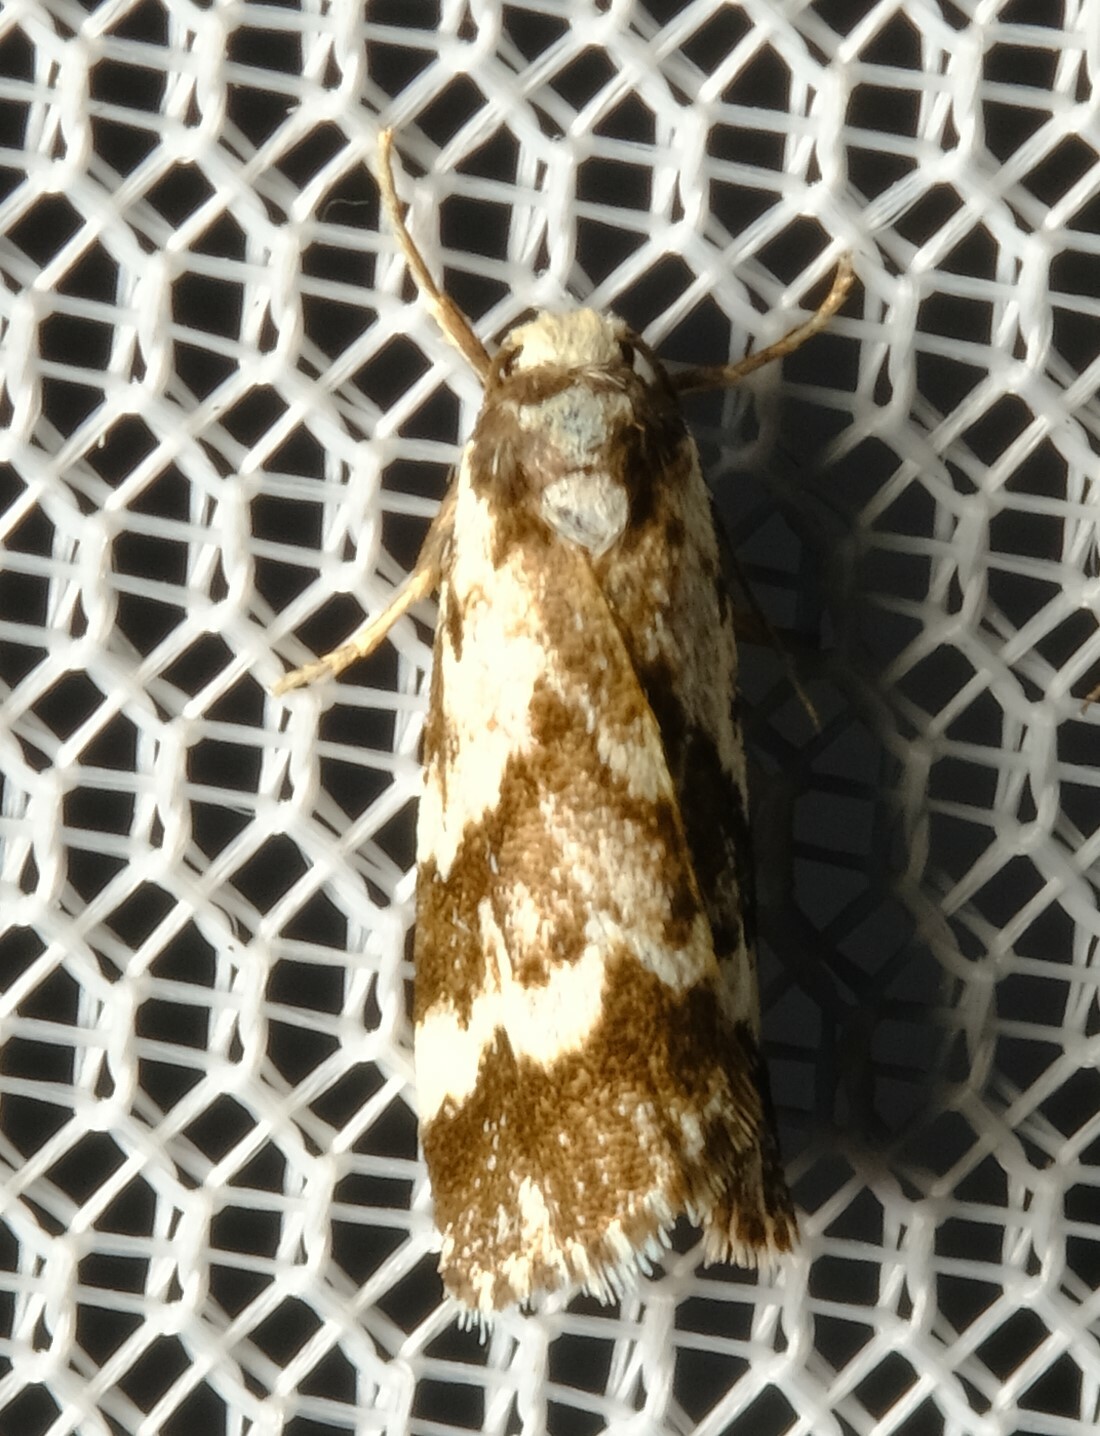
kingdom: Animalia
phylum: Arthropoda
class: Insecta
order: Lepidoptera
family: Erebidae
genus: Damias
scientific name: Damias procrena
